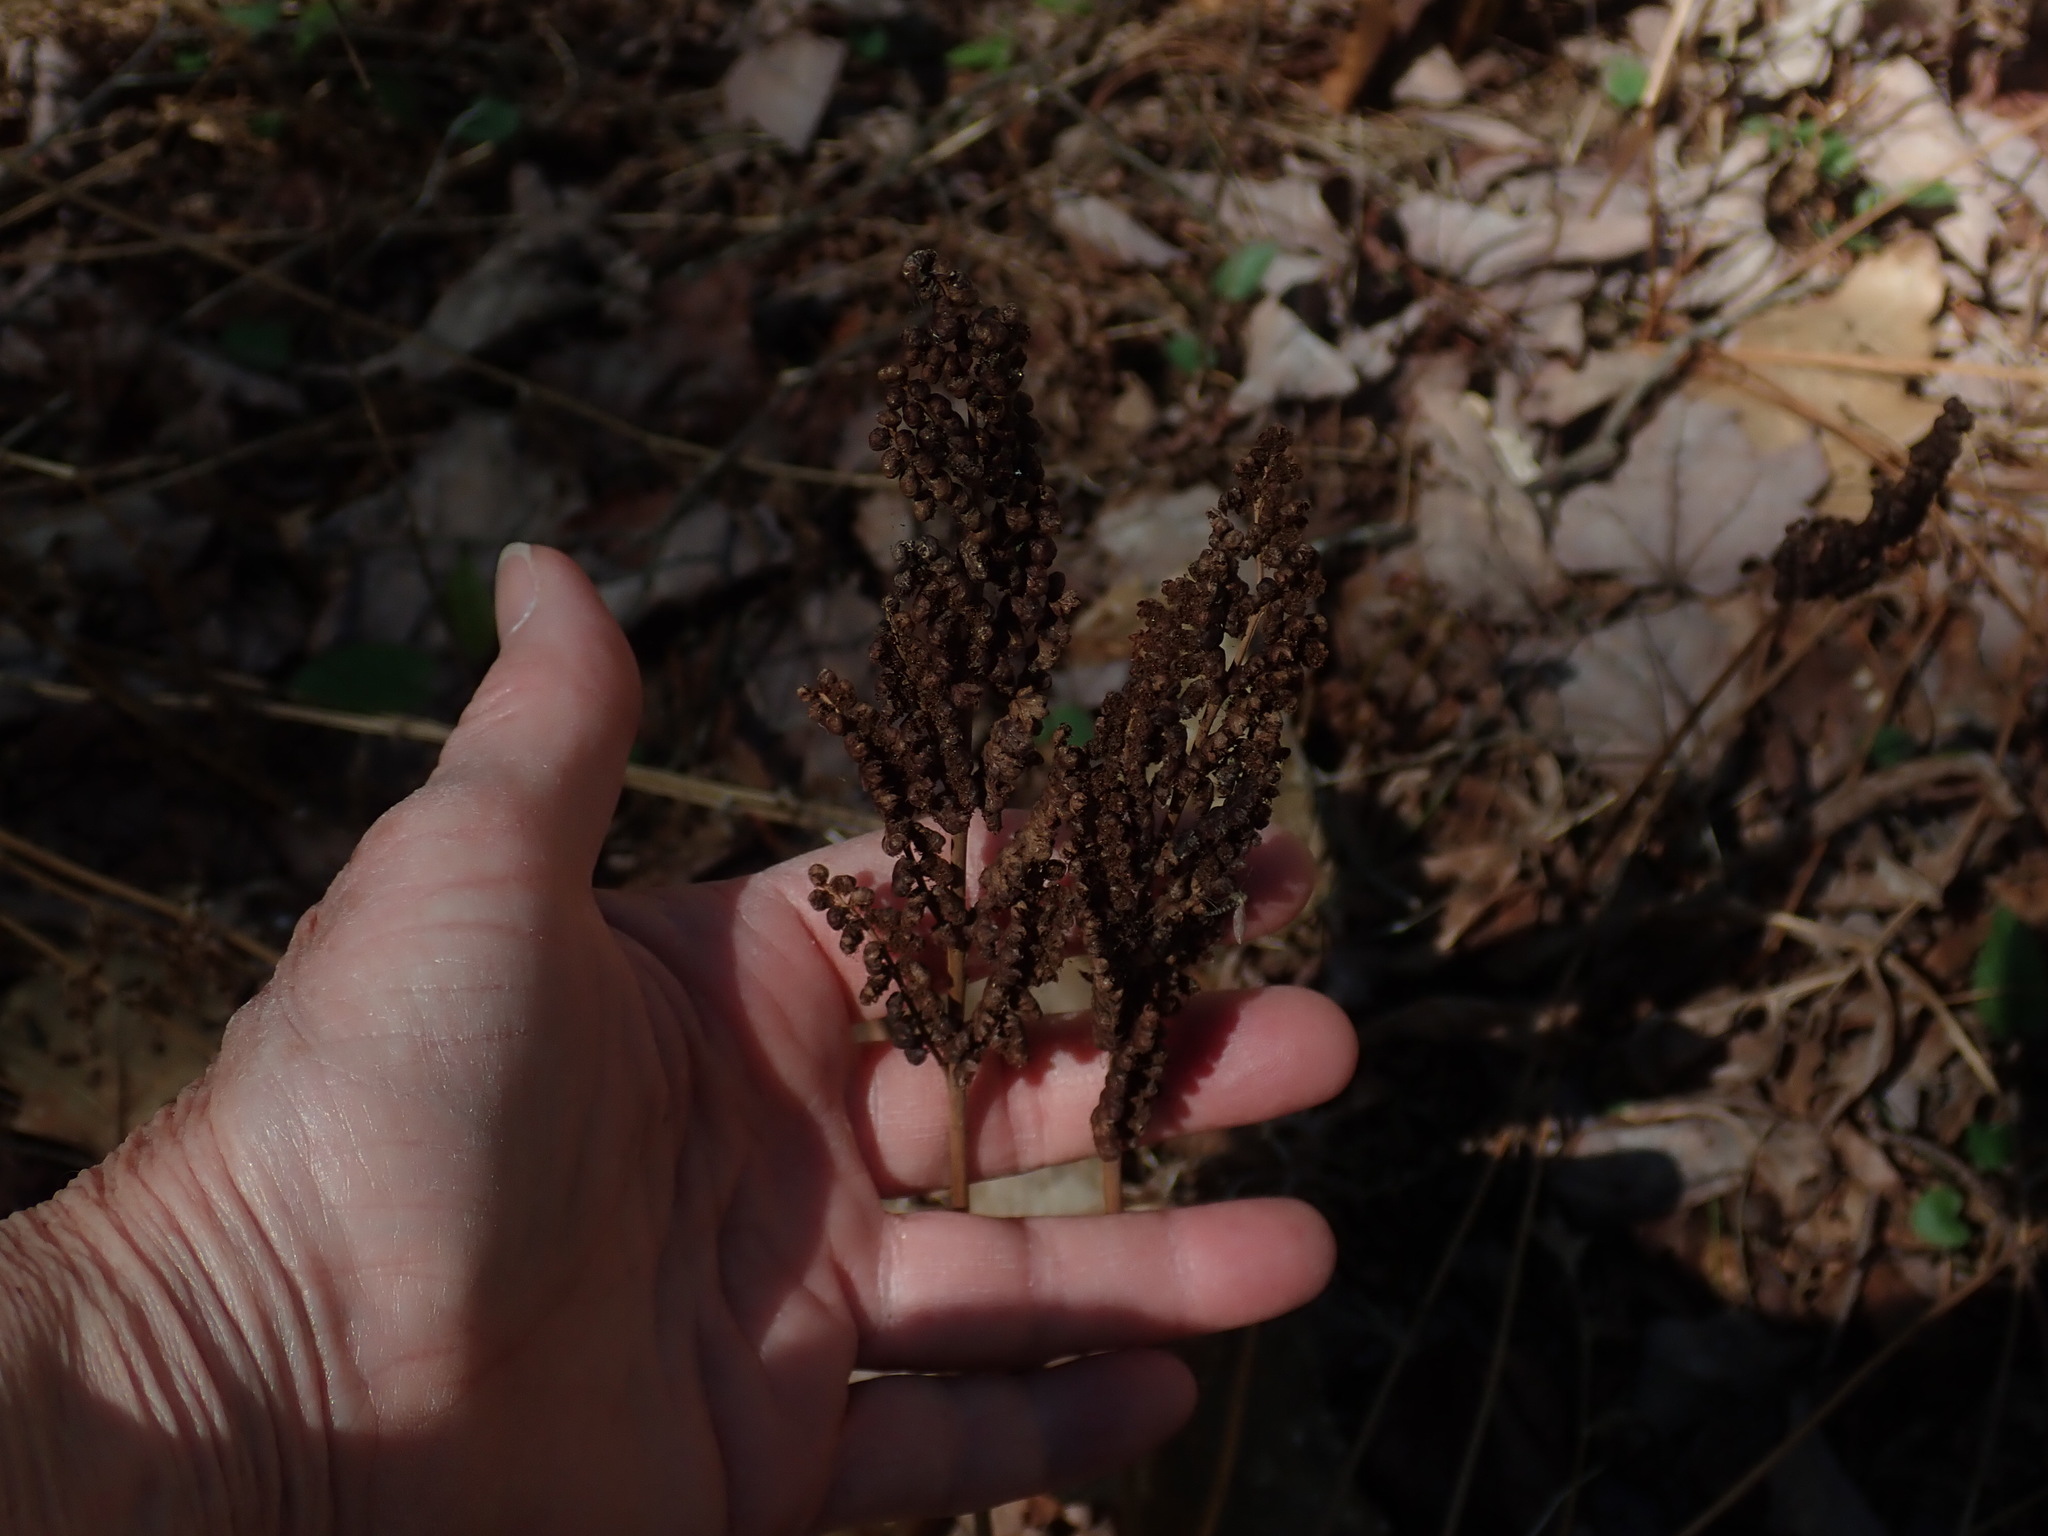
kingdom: Plantae
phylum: Tracheophyta
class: Polypodiopsida
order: Polypodiales
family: Onocleaceae
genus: Onoclea
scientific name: Onoclea sensibilis
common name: Sensitive fern
